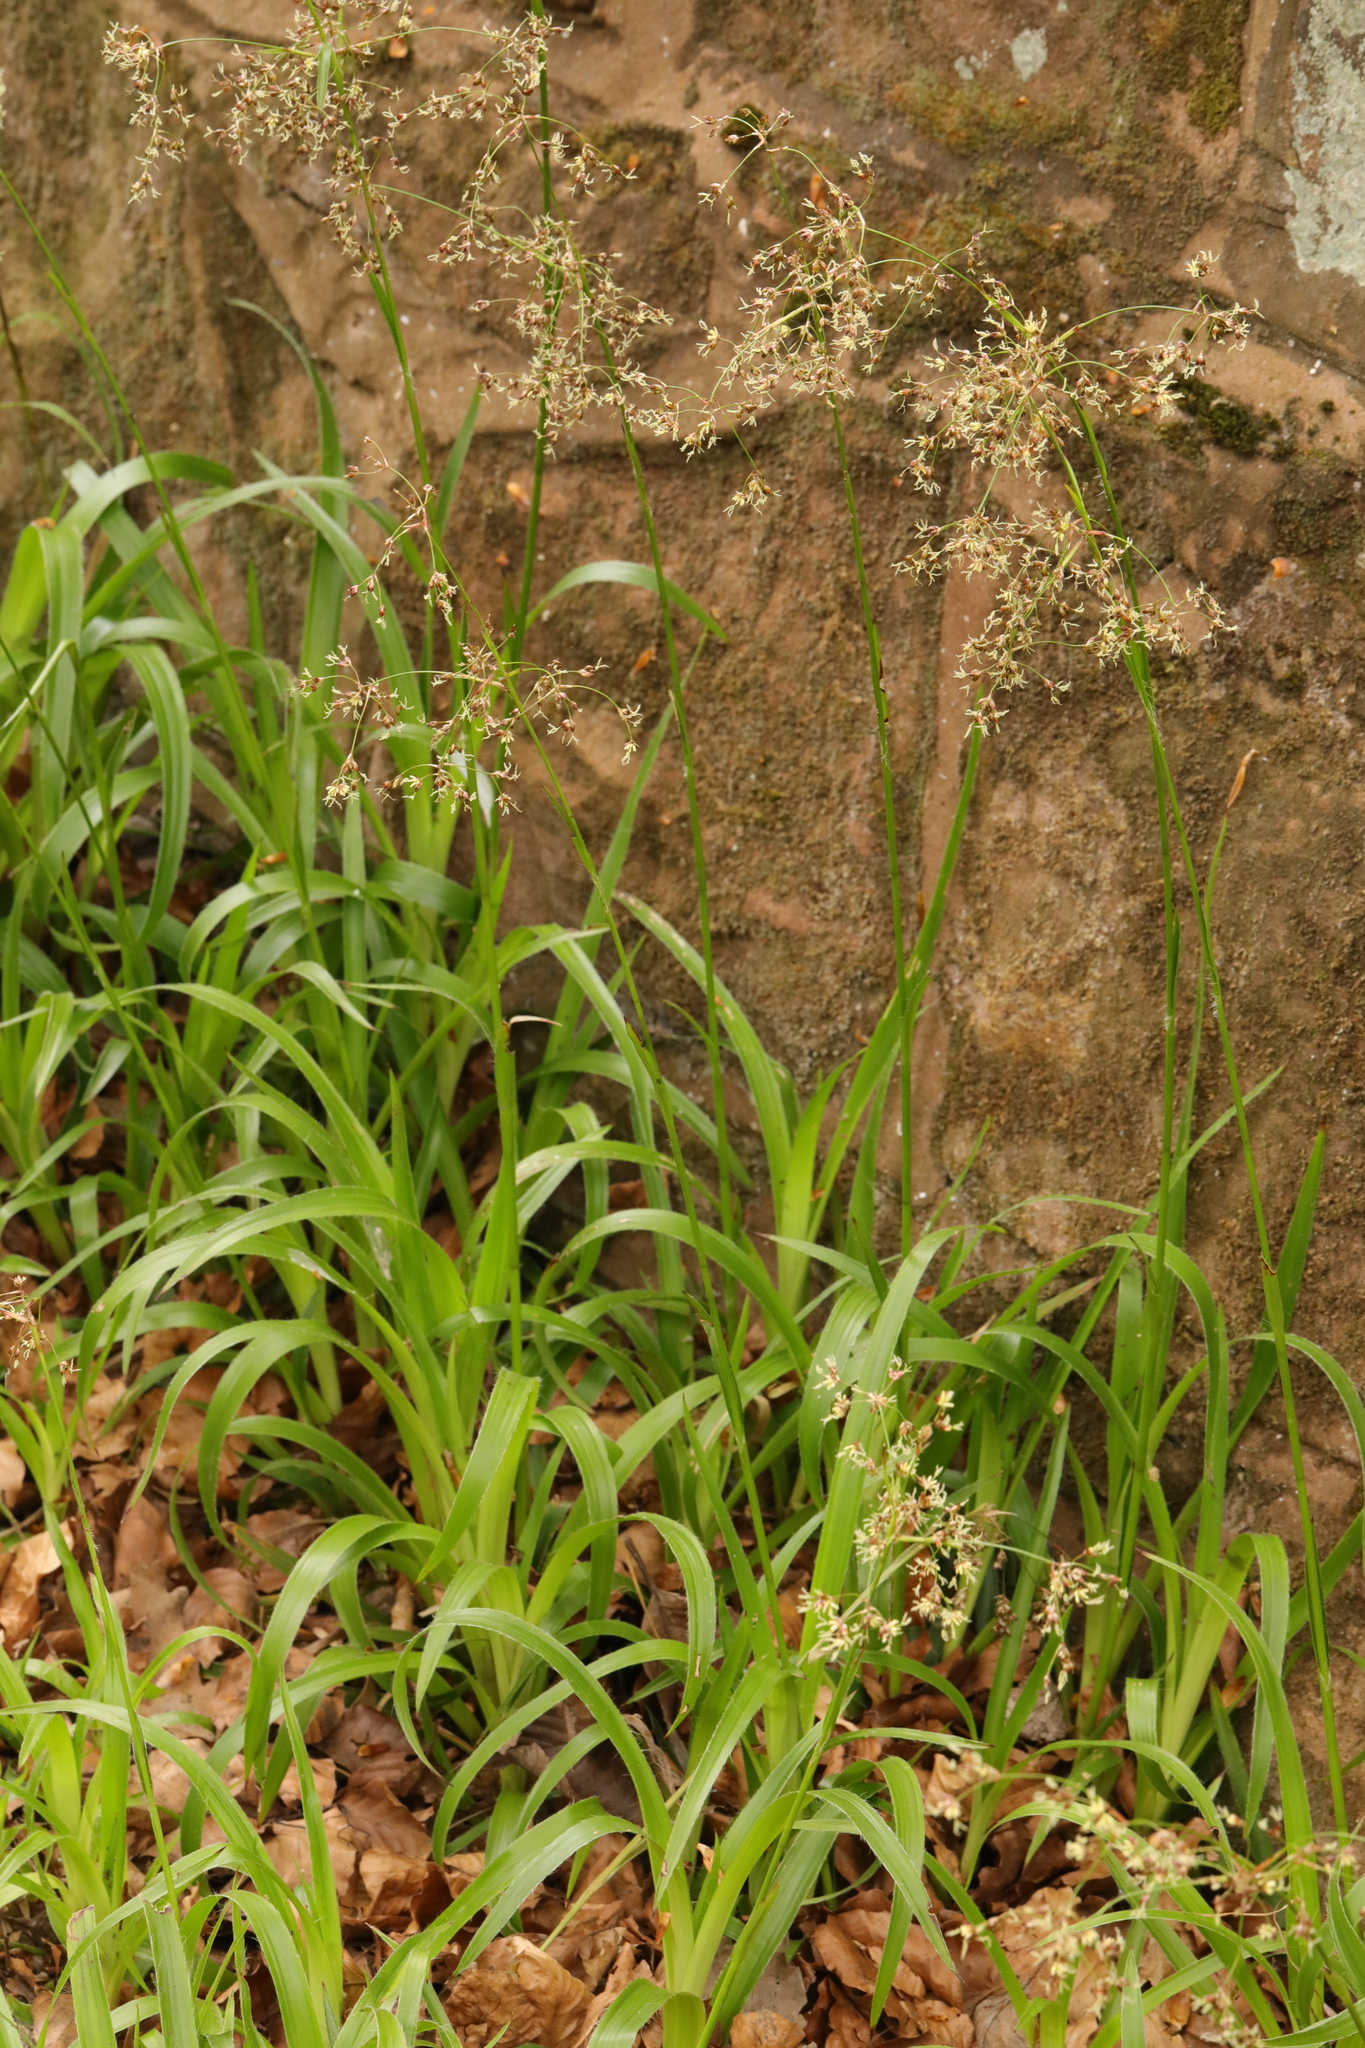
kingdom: Plantae
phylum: Tracheophyta
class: Liliopsida
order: Poales
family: Juncaceae
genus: Luzula
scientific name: Luzula sylvatica
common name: Great wood-rush
